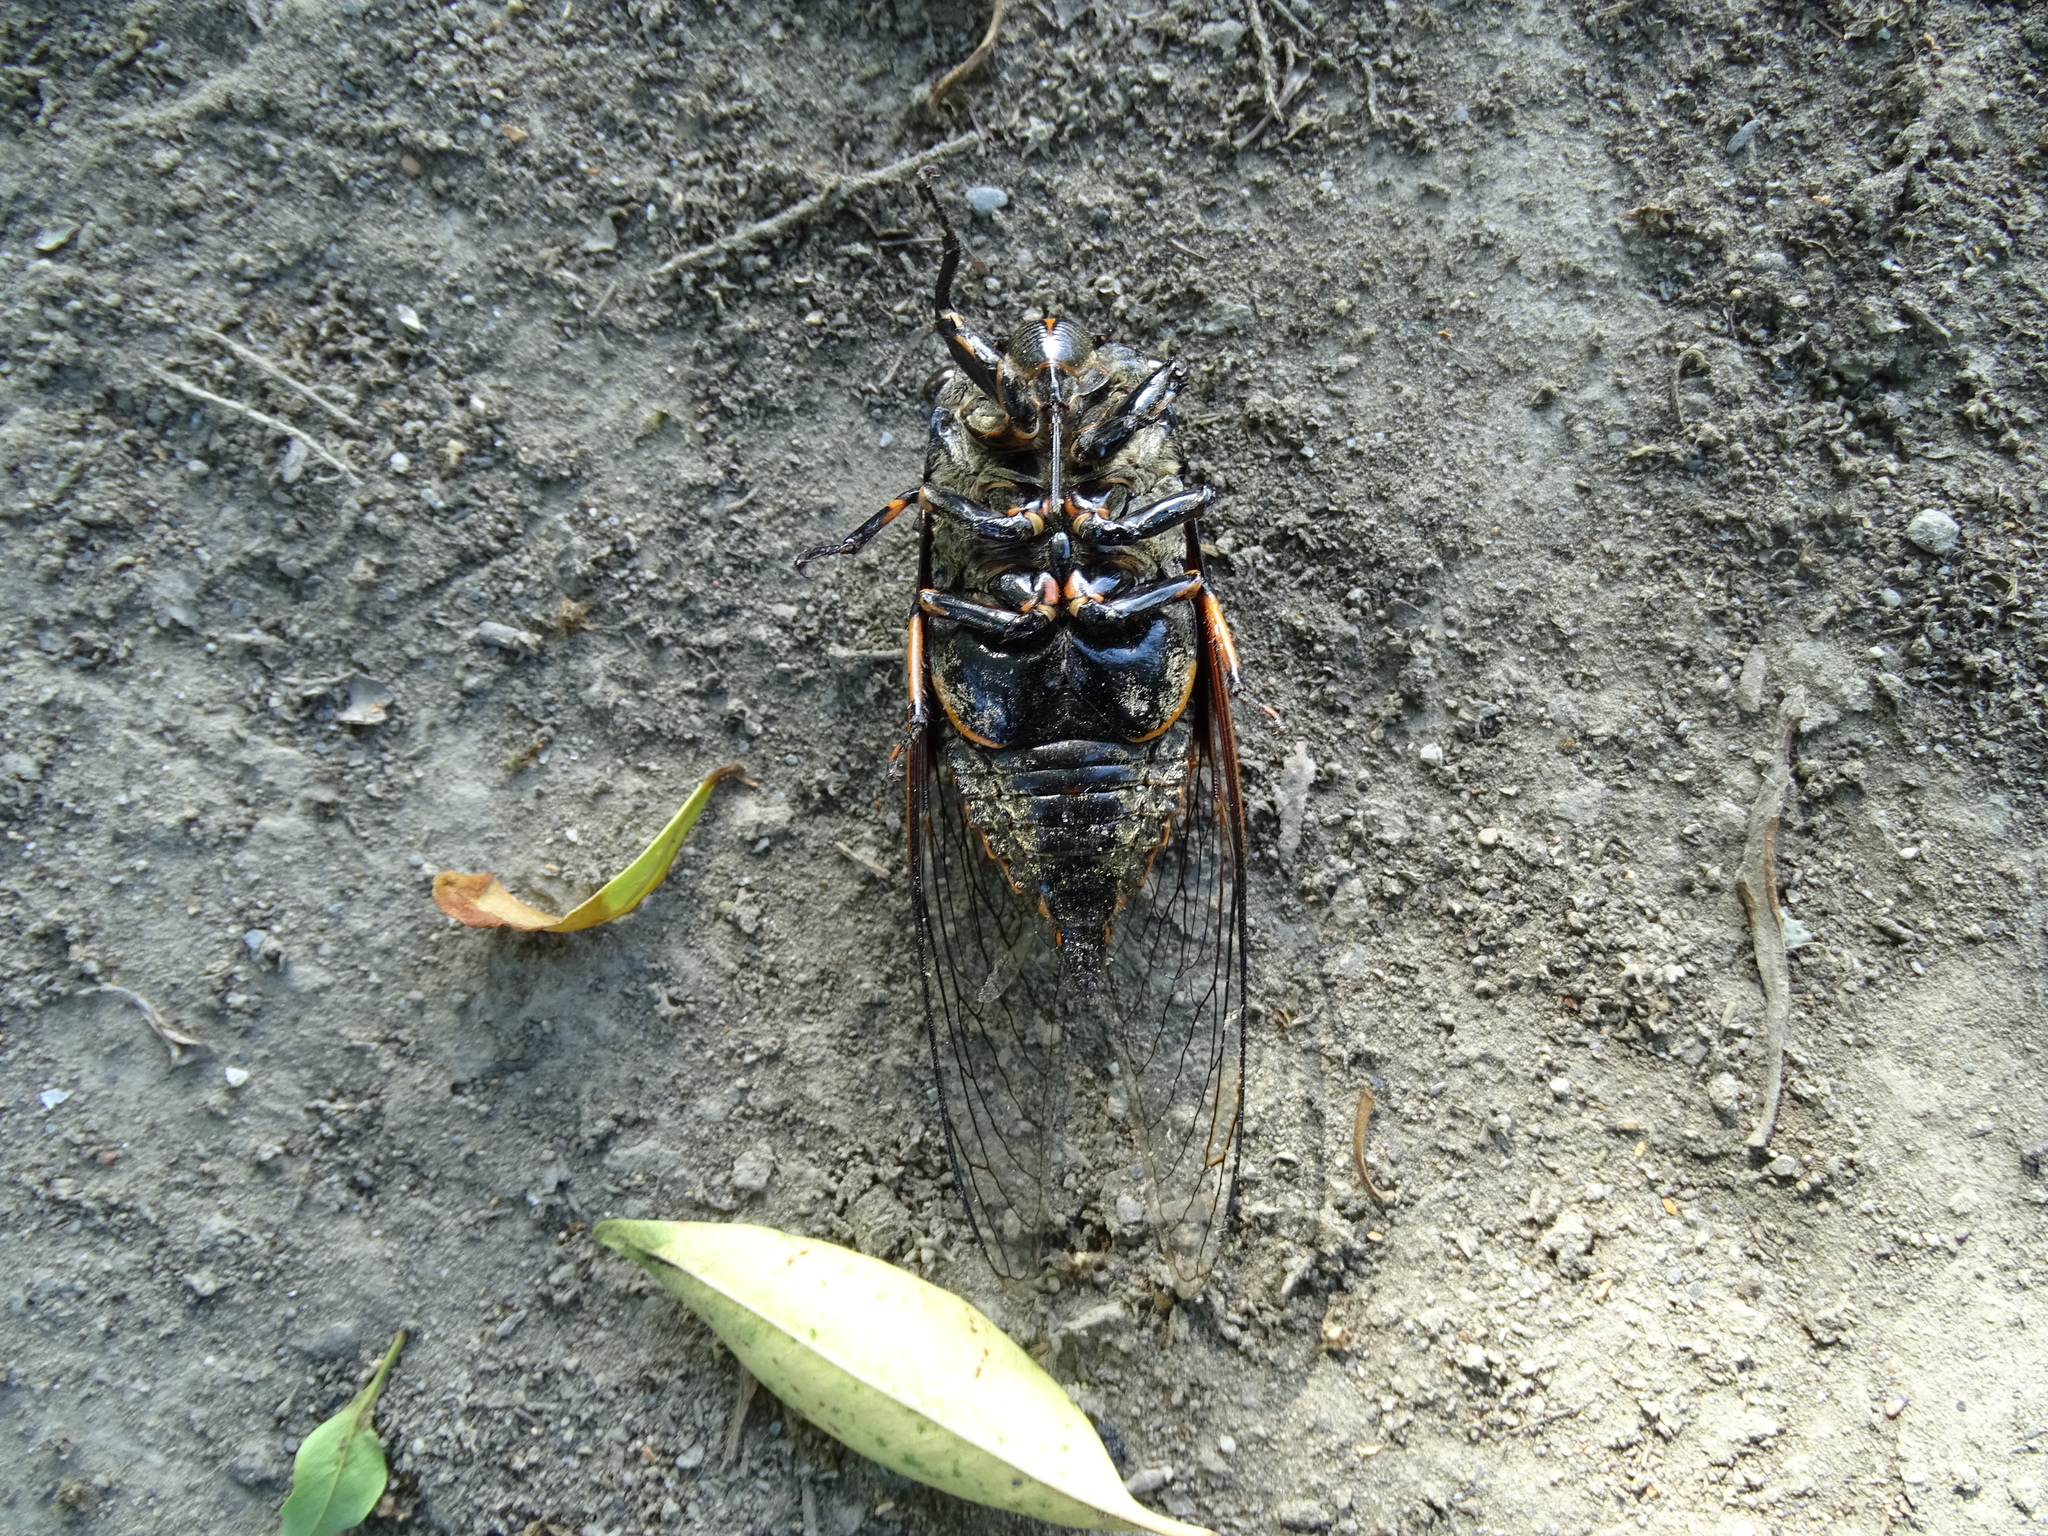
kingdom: Animalia
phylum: Arthropoda
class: Insecta
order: Hemiptera
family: Cicadidae
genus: Cryptotympana
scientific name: Cryptotympana atrata
